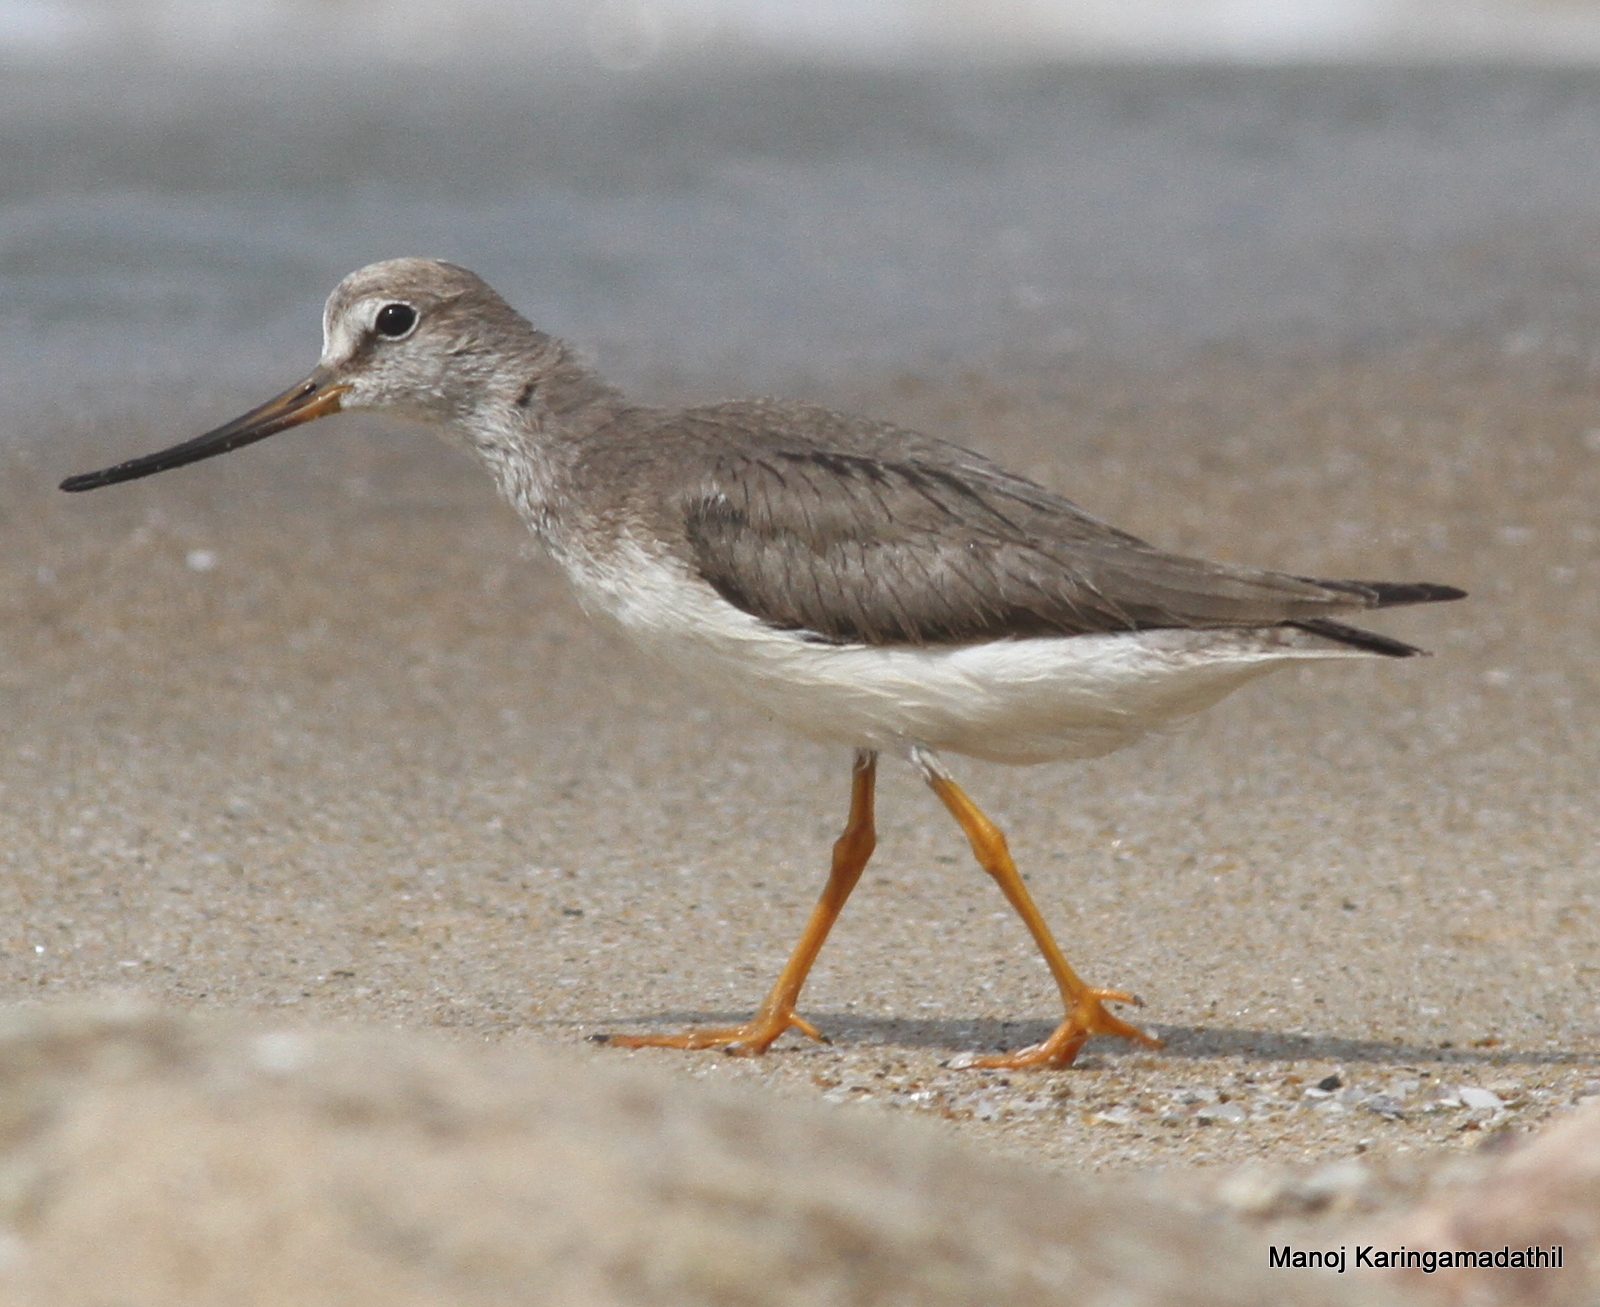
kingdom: Animalia
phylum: Chordata
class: Aves
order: Charadriiformes
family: Scolopacidae
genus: Xenus
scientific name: Xenus cinereus
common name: Terek sandpiper
